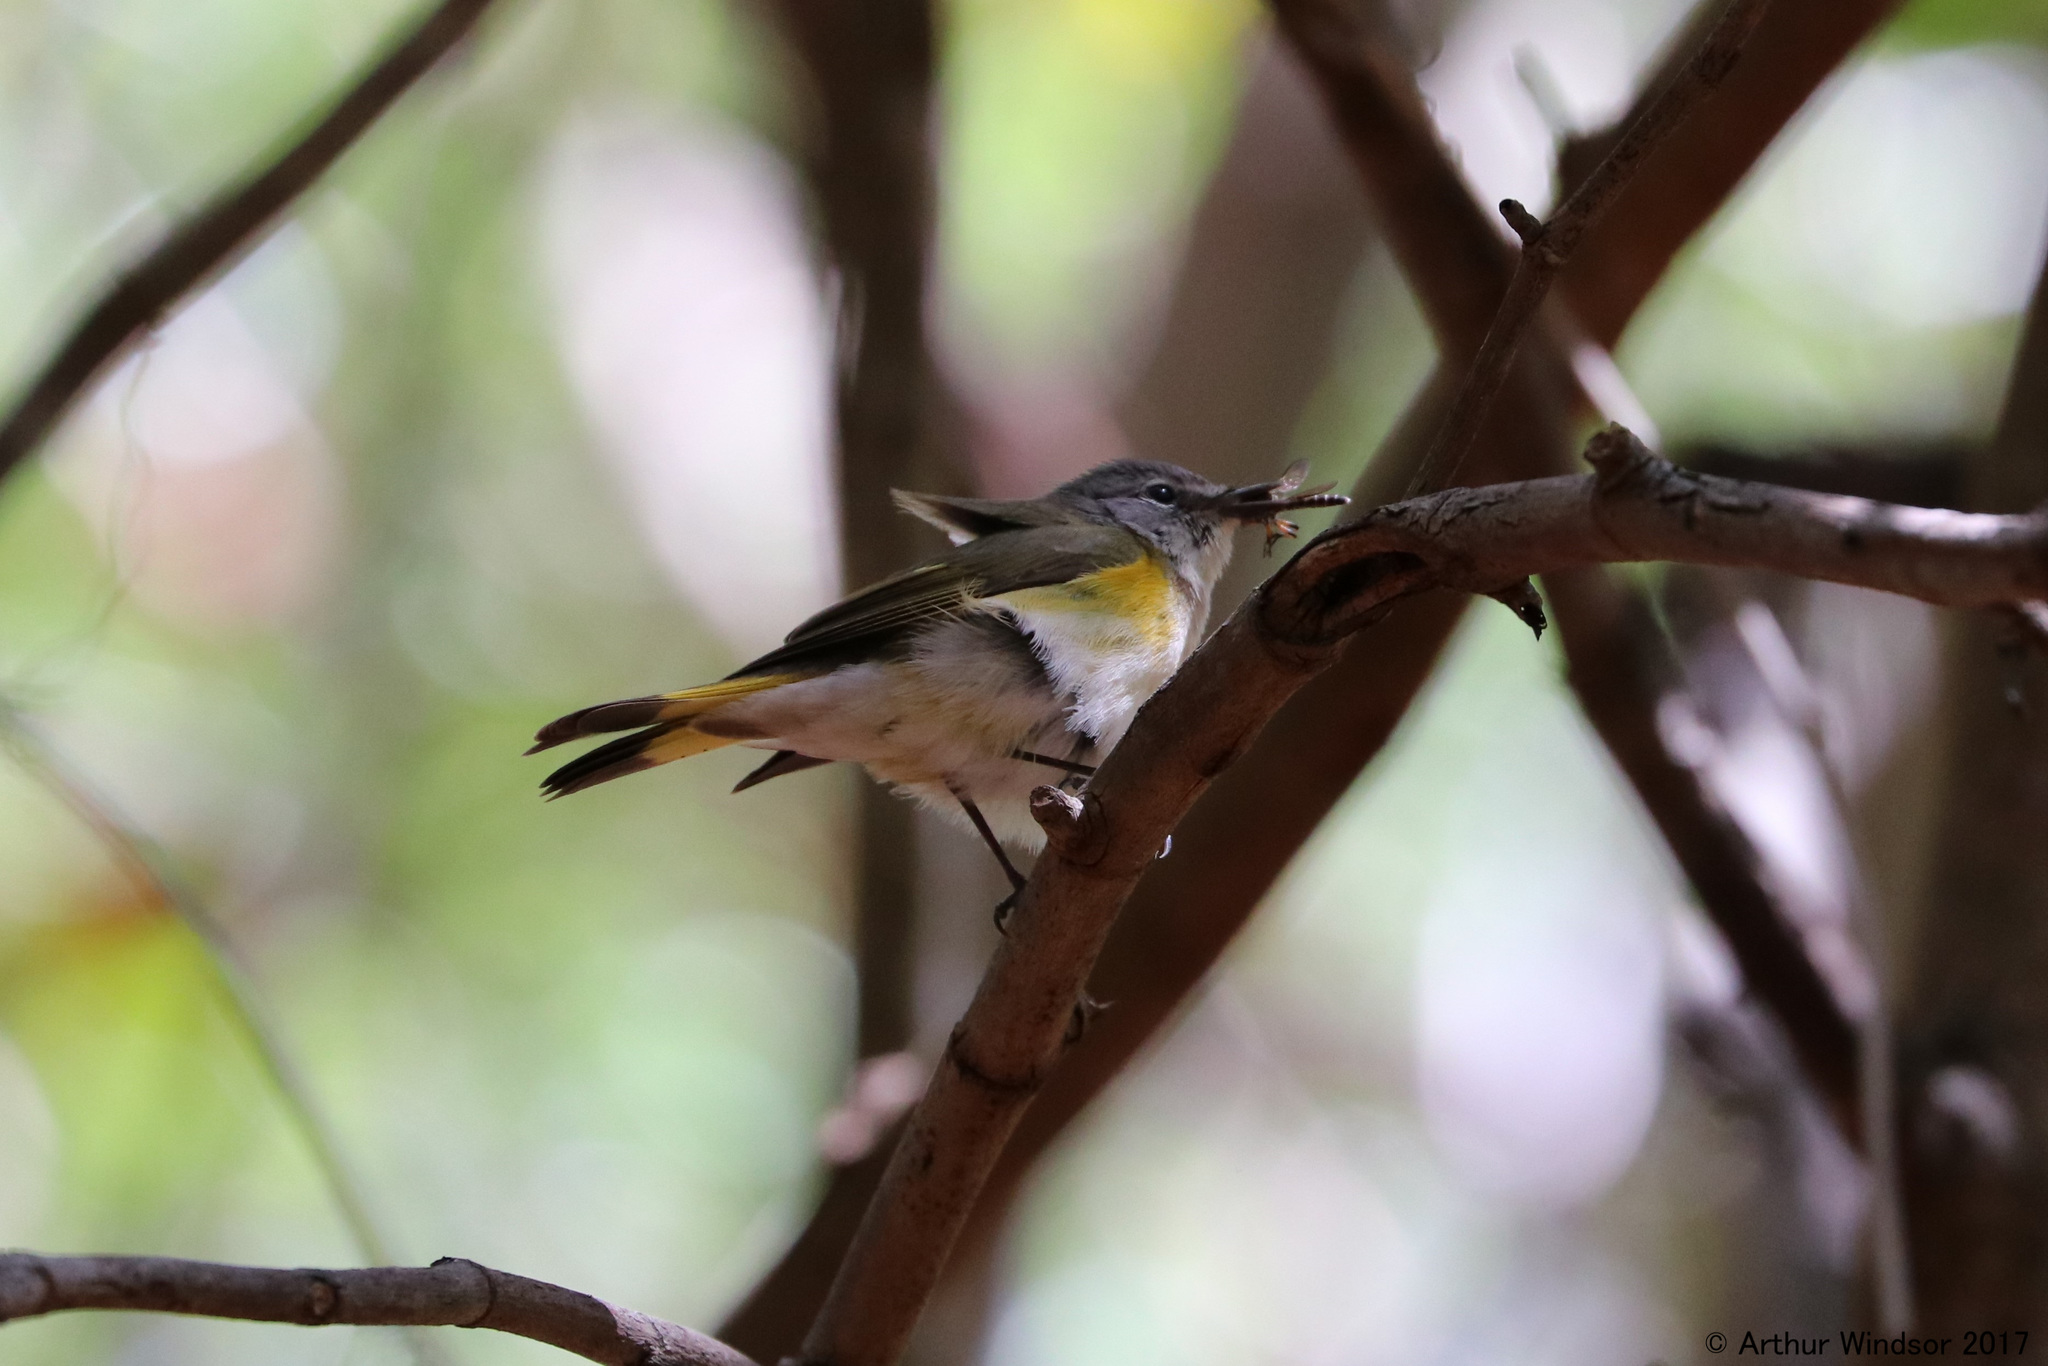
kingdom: Animalia
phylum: Chordata
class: Aves
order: Passeriformes
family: Parulidae
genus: Setophaga
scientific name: Setophaga ruticilla
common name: American redstart
